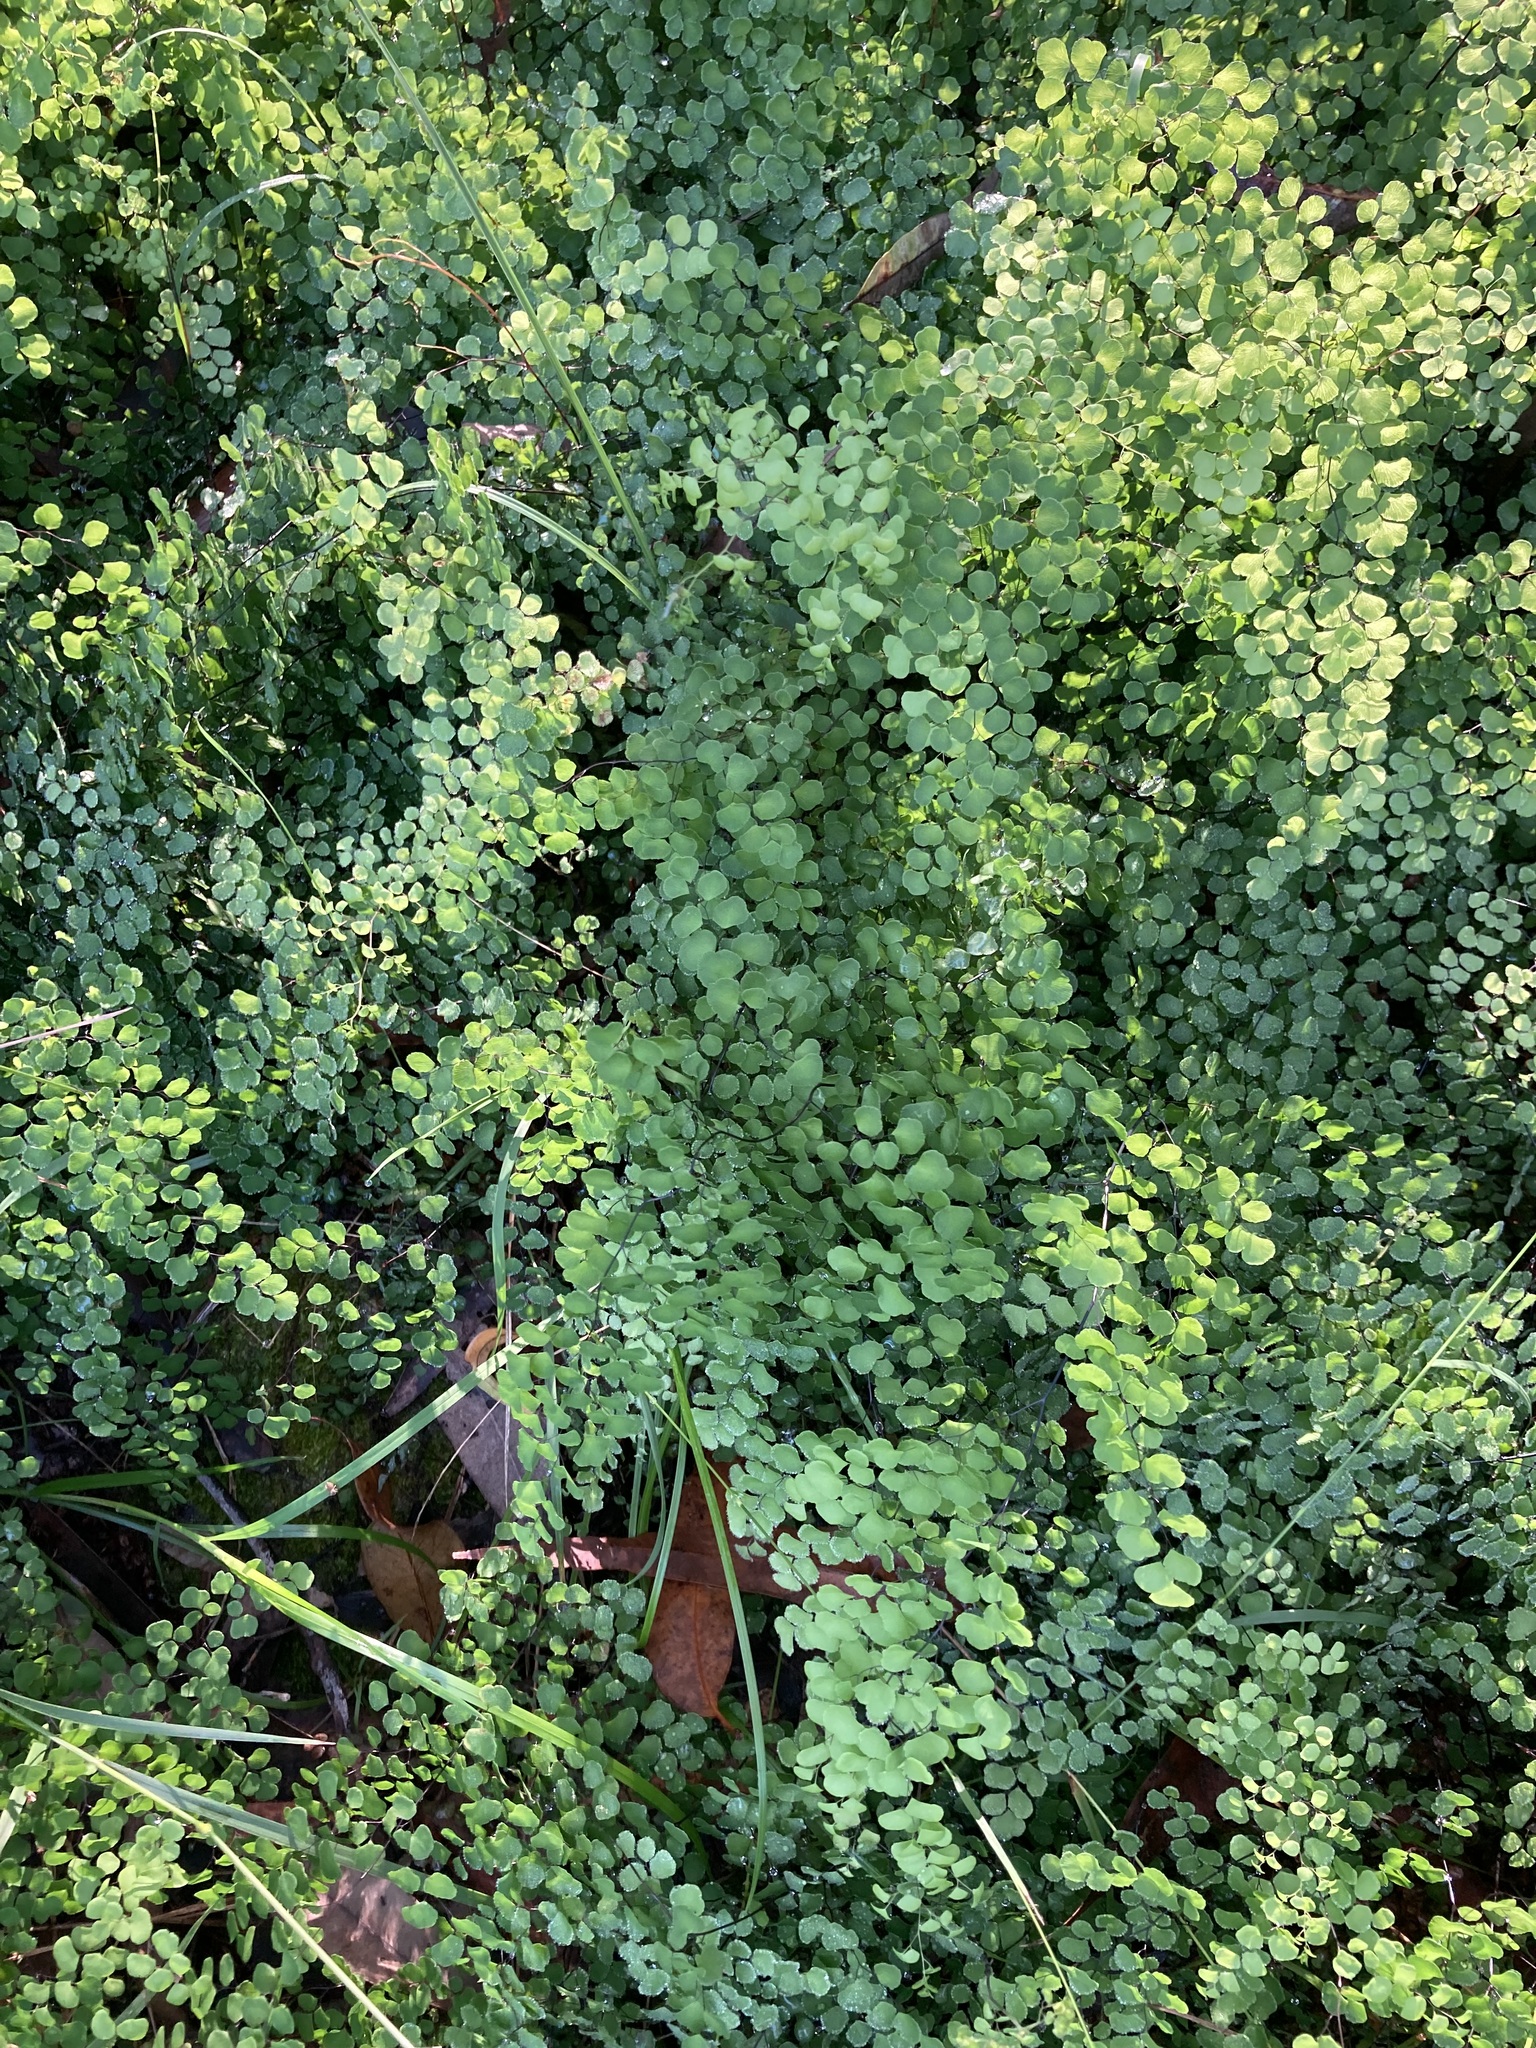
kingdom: Plantae
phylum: Tracheophyta
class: Polypodiopsida
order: Polypodiales
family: Pteridaceae
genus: Adiantum
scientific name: Adiantum aethiopicum
